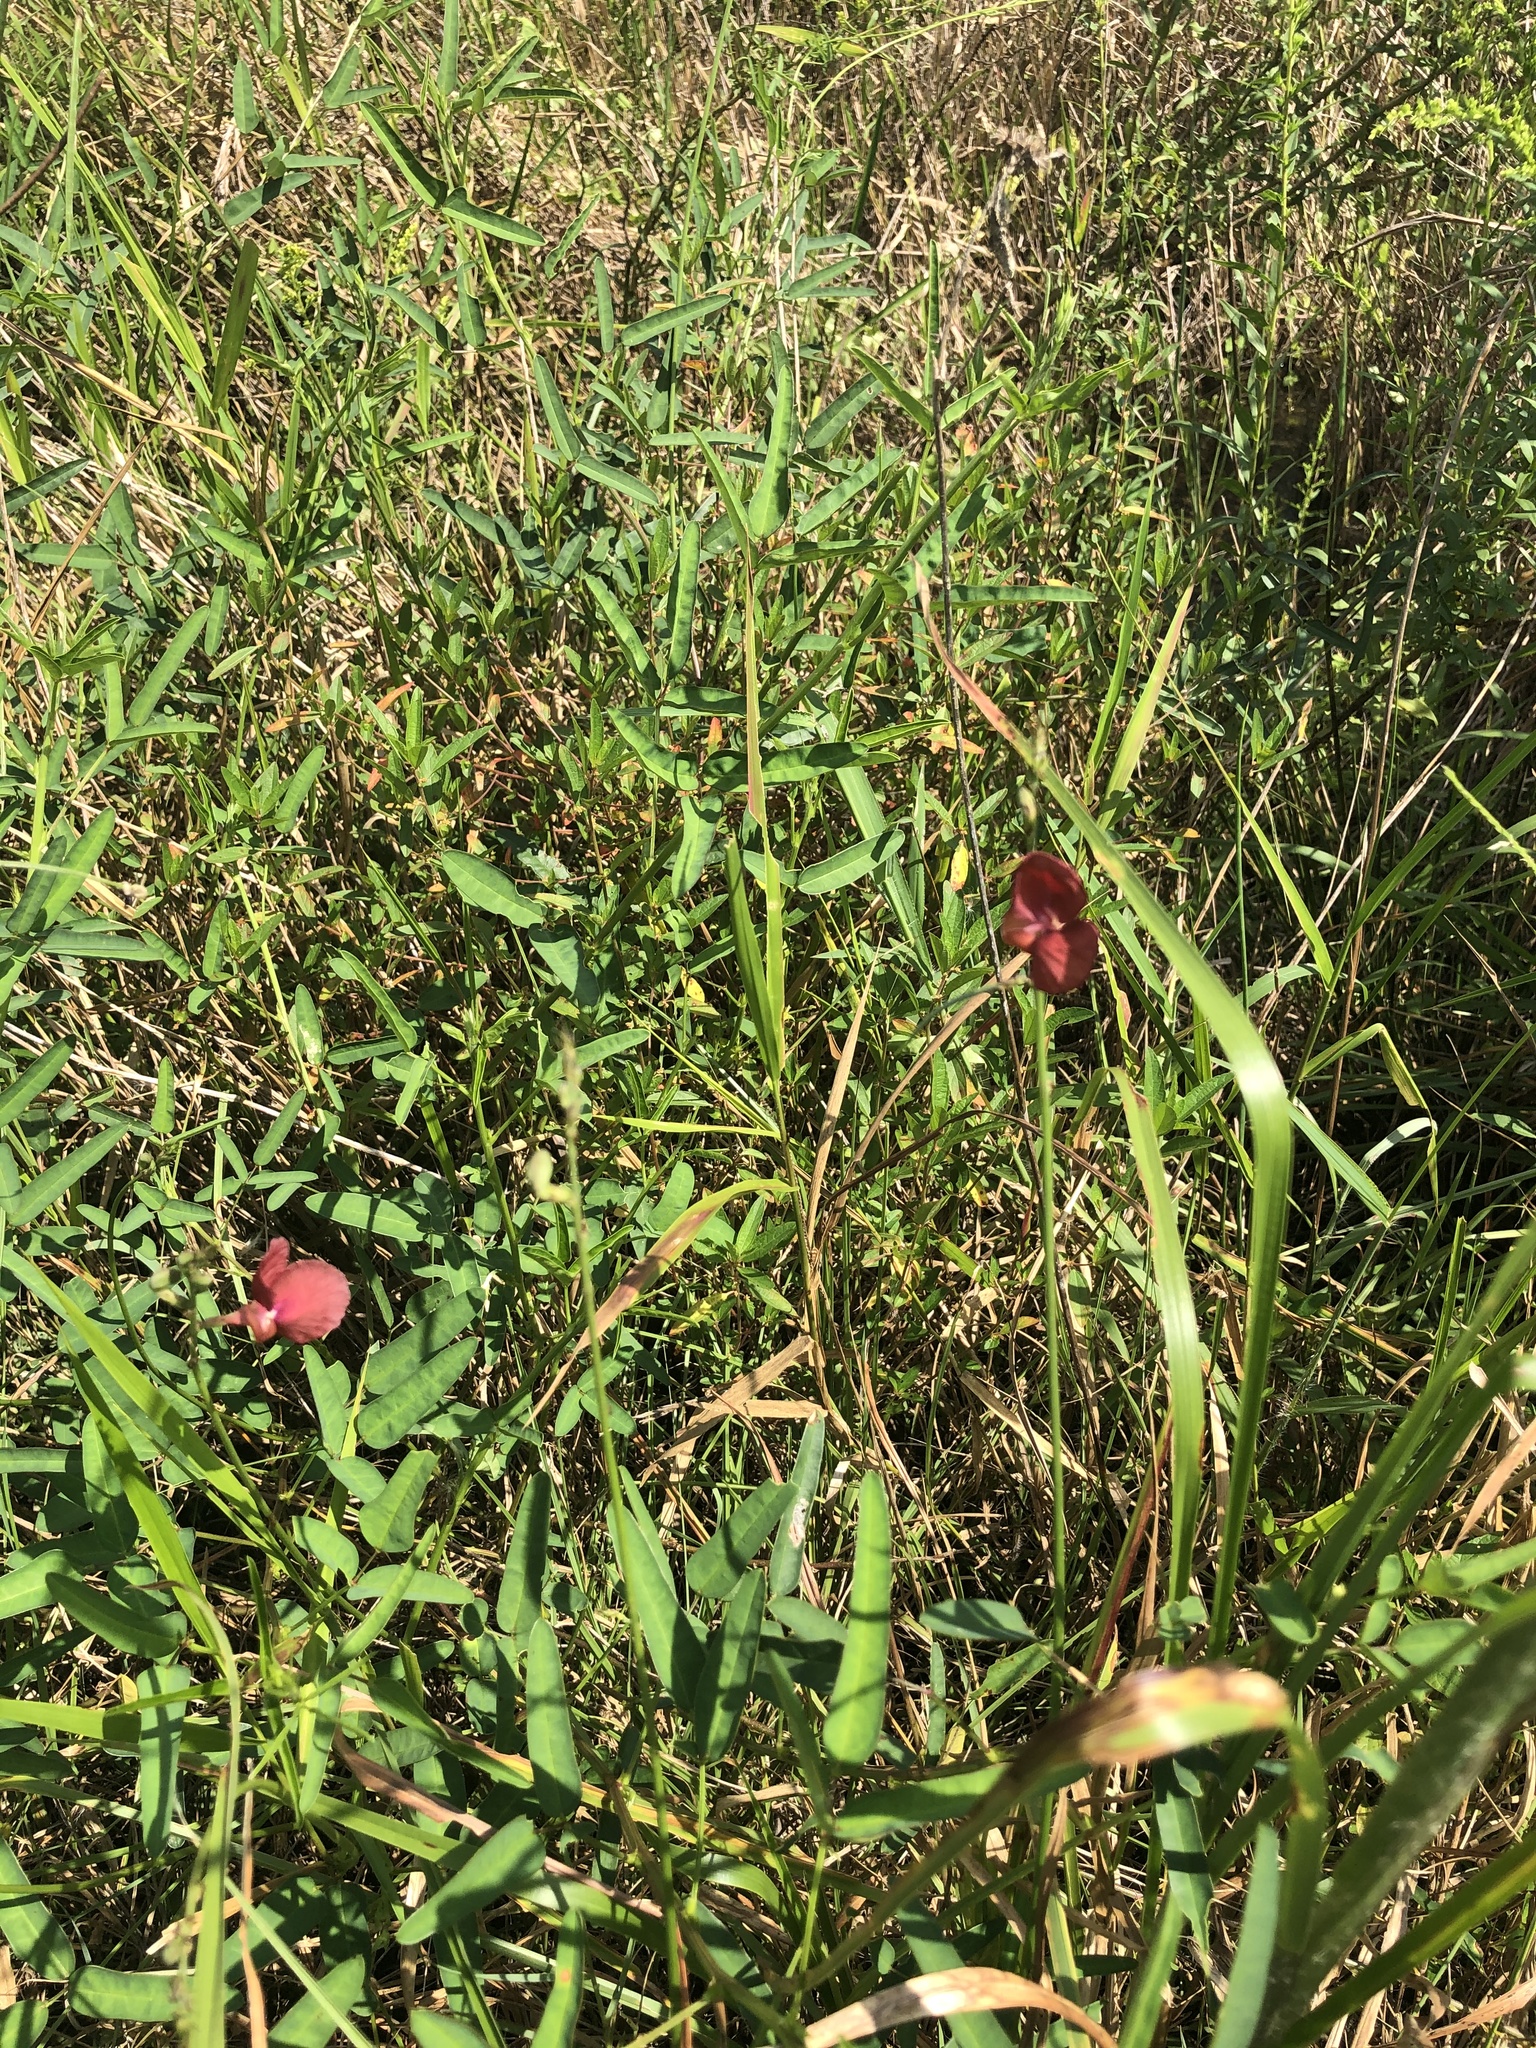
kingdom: Plantae
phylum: Tracheophyta
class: Magnoliopsida
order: Fabales
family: Fabaceae
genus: Macroptilium
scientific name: Macroptilium lathyroides
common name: Wild bushbean
